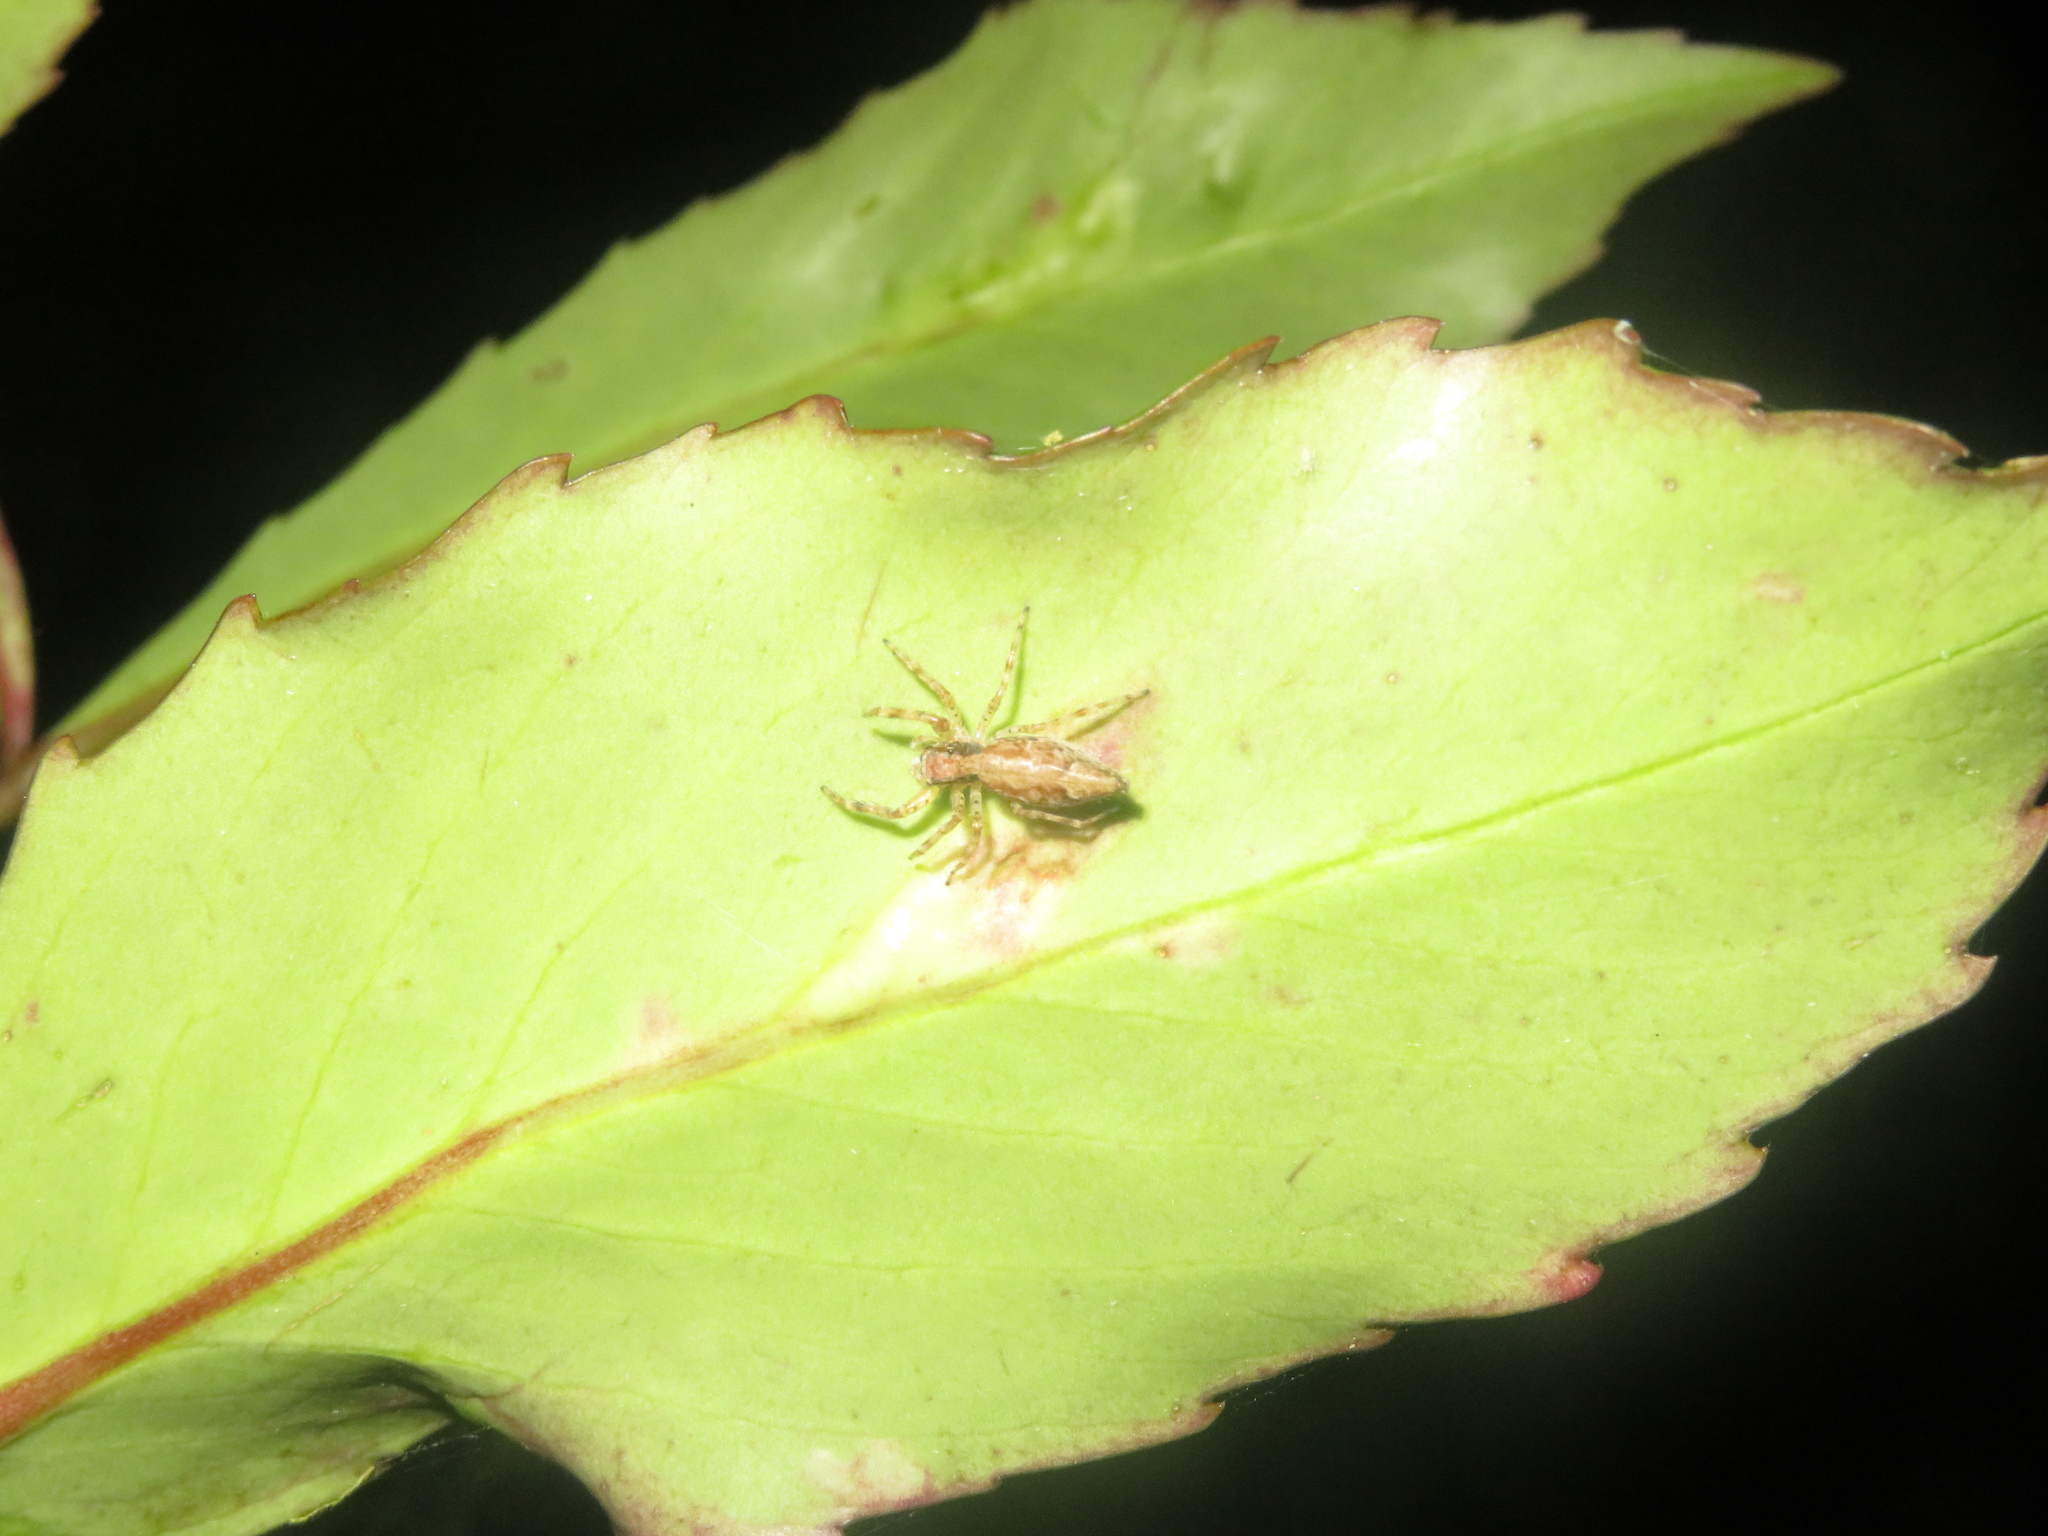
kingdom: Animalia
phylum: Arthropoda
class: Arachnida
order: Araneae
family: Salticidae
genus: Helpis
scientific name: Helpis minitabunda
